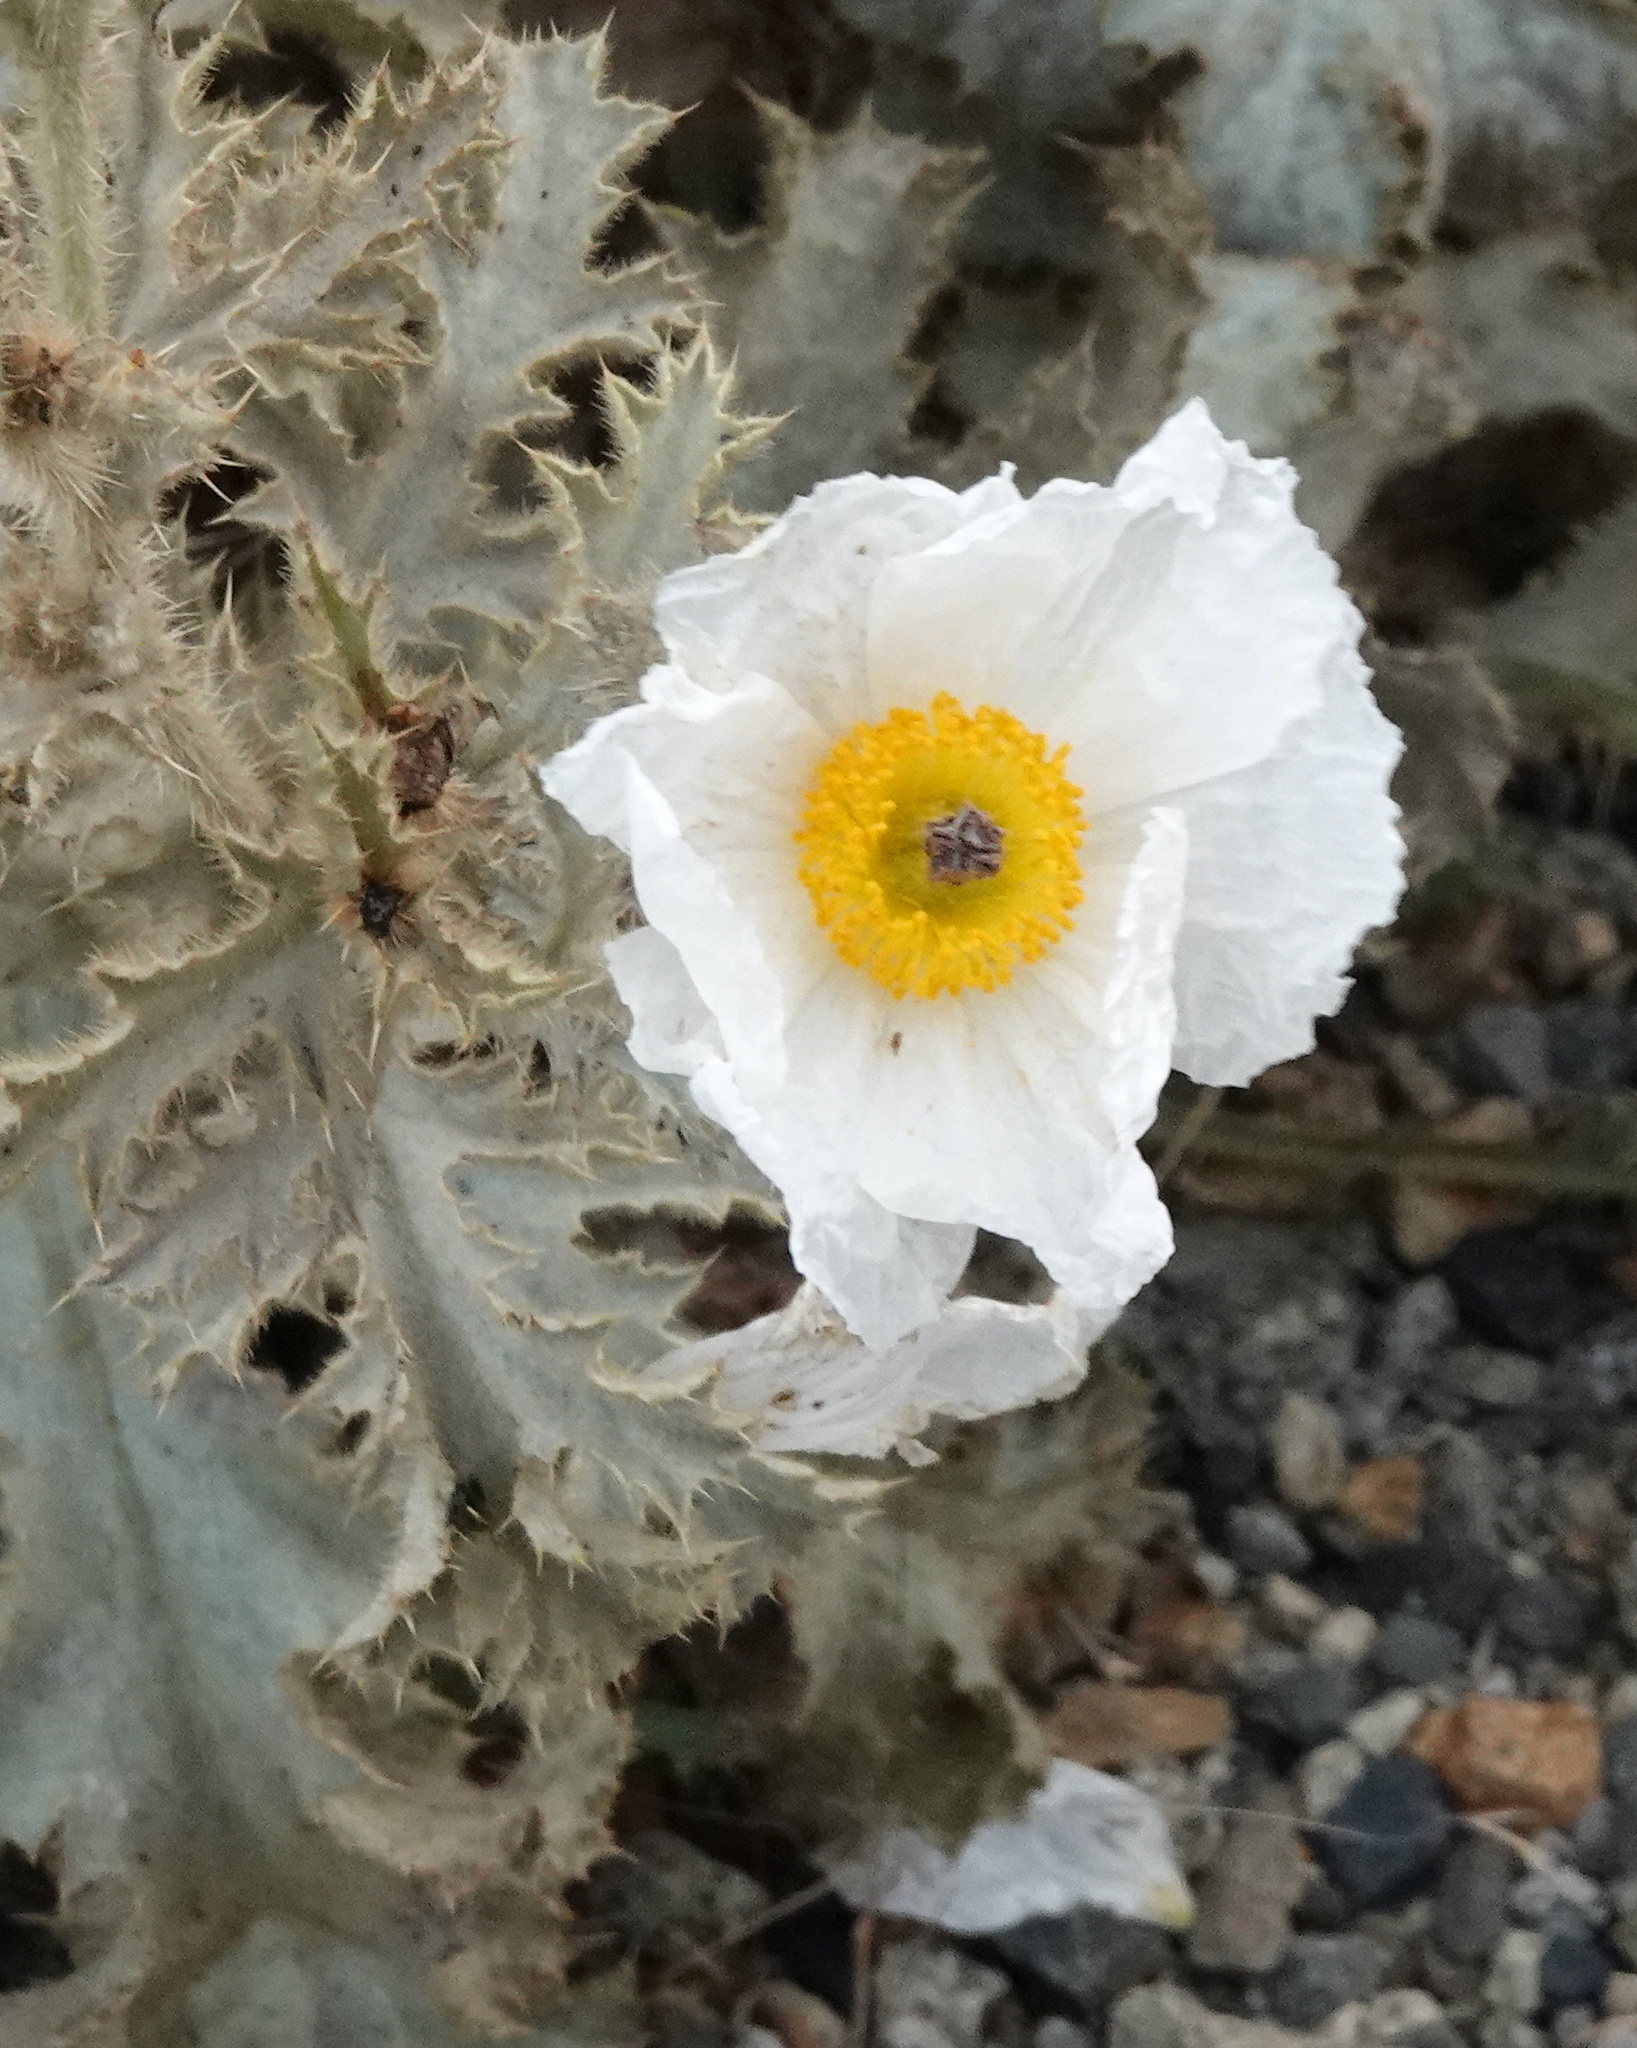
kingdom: Plantae
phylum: Tracheophyta
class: Magnoliopsida
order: Ranunculales
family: Papaveraceae
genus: Argemone
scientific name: Argemone munita
